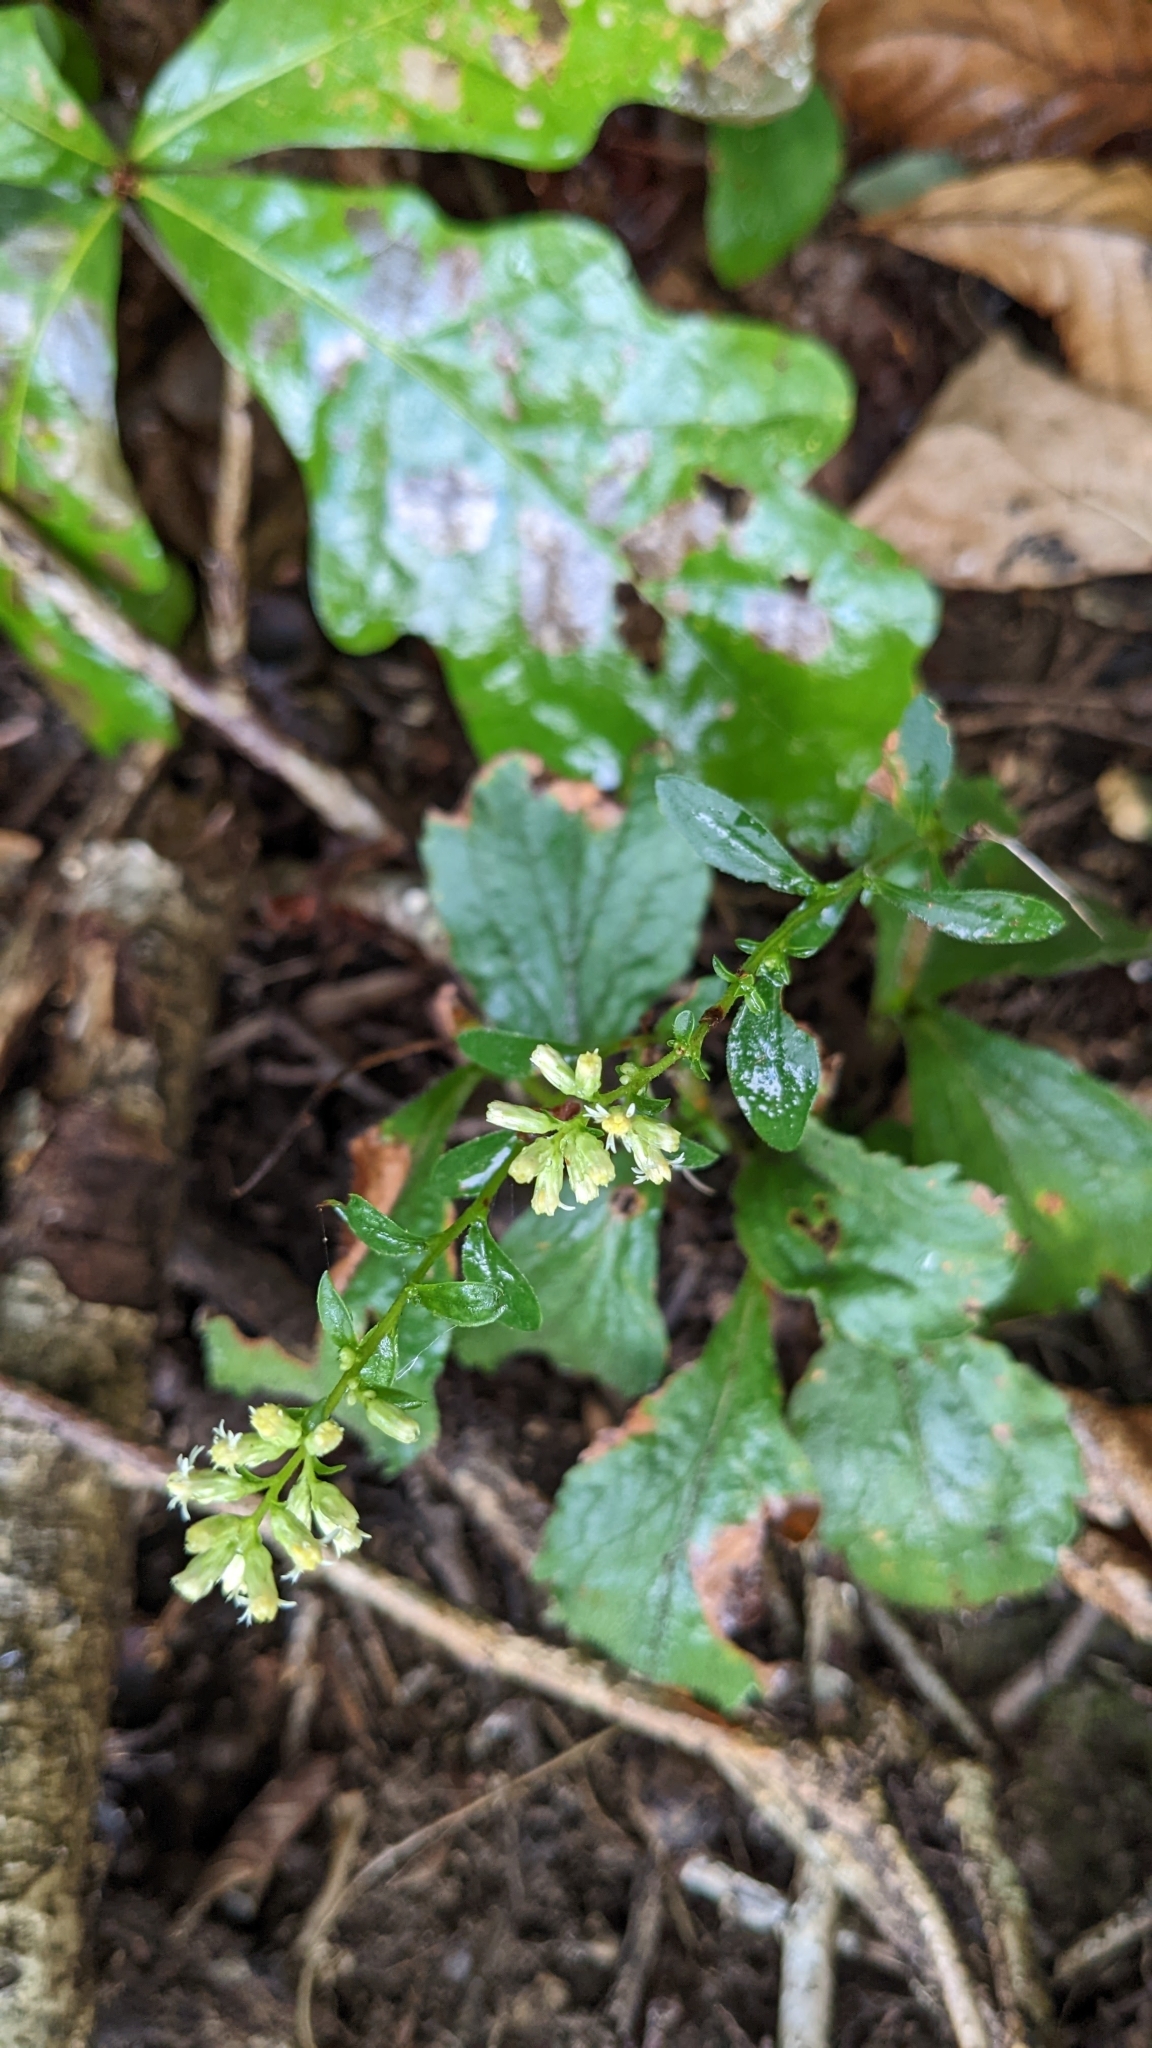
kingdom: Plantae
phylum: Tracheophyta
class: Magnoliopsida
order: Asterales
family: Asteraceae
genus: Solidago
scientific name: Solidago bicolor
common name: Silverrod
